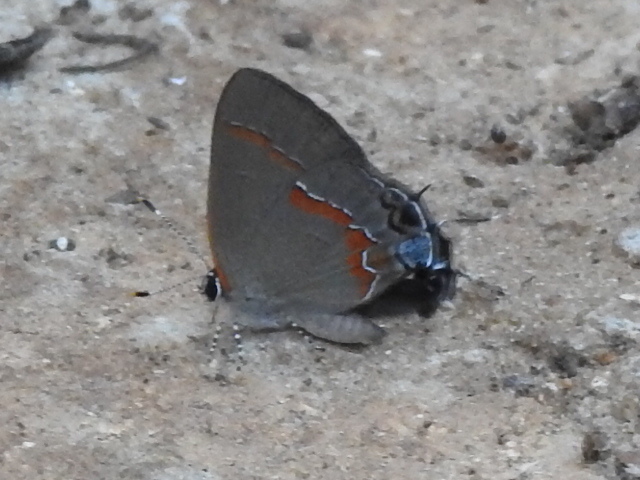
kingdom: Animalia
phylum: Arthropoda
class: Insecta
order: Lepidoptera
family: Lycaenidae
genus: Calycopis
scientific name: Calycopis cecrops
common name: Red-banded hairstreak
